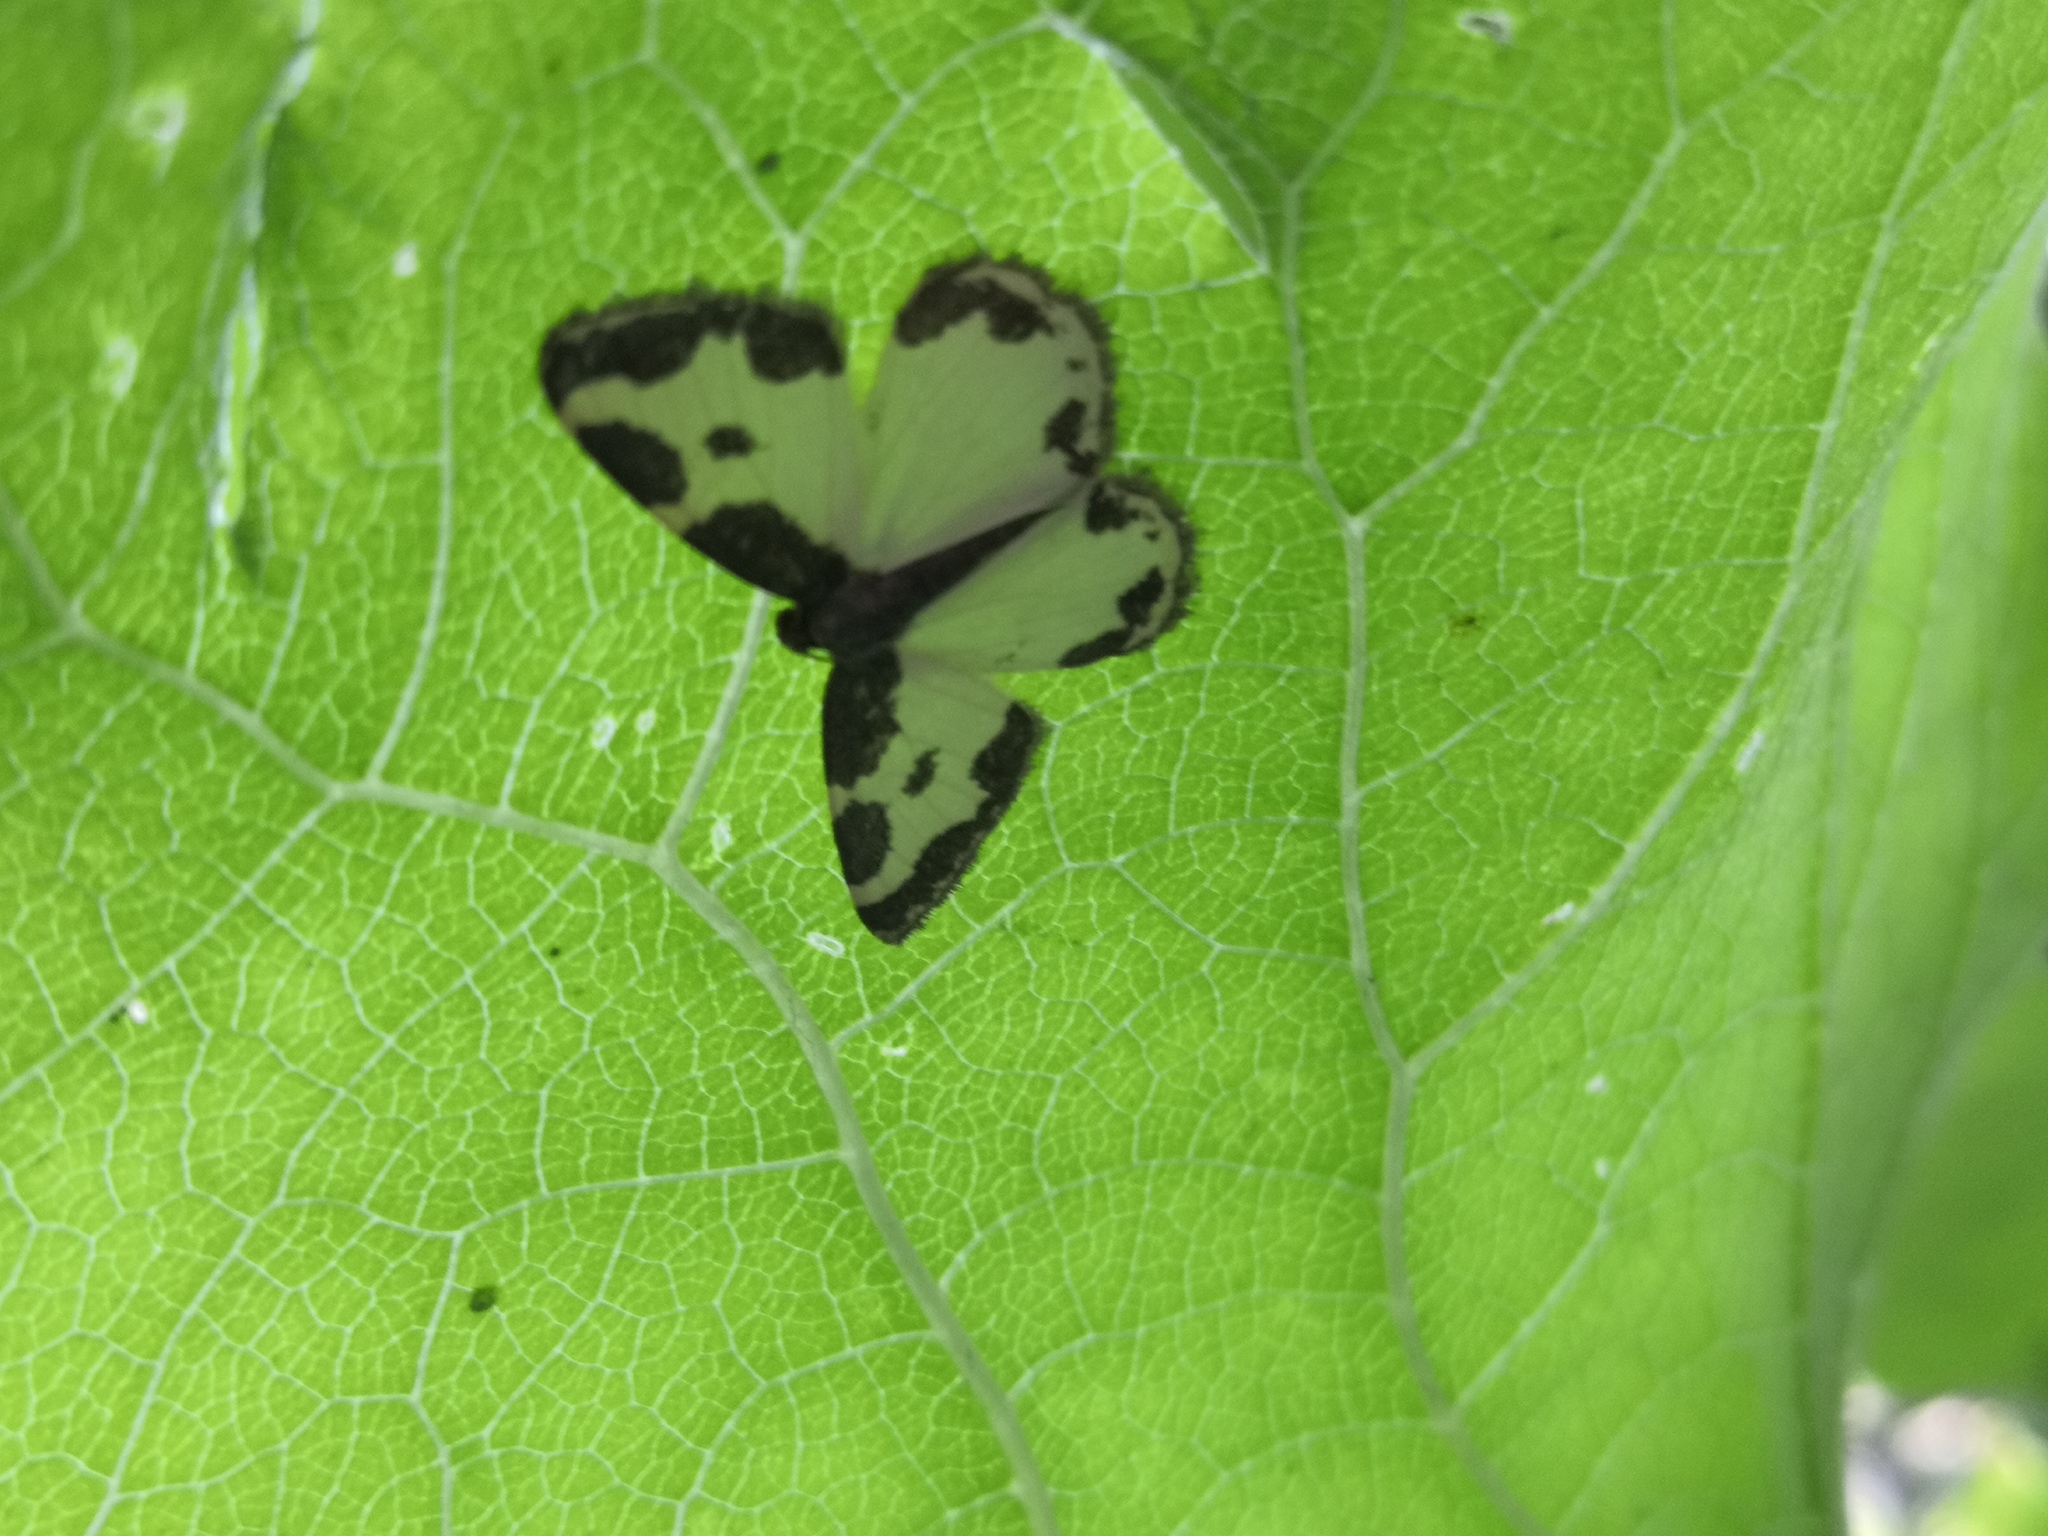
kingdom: Animalia
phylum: Arthropoda
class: Insecta
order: Lepidoptera
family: Geometridae
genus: Lomaspilis
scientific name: Lomaspilis marginata
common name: Clouded border
